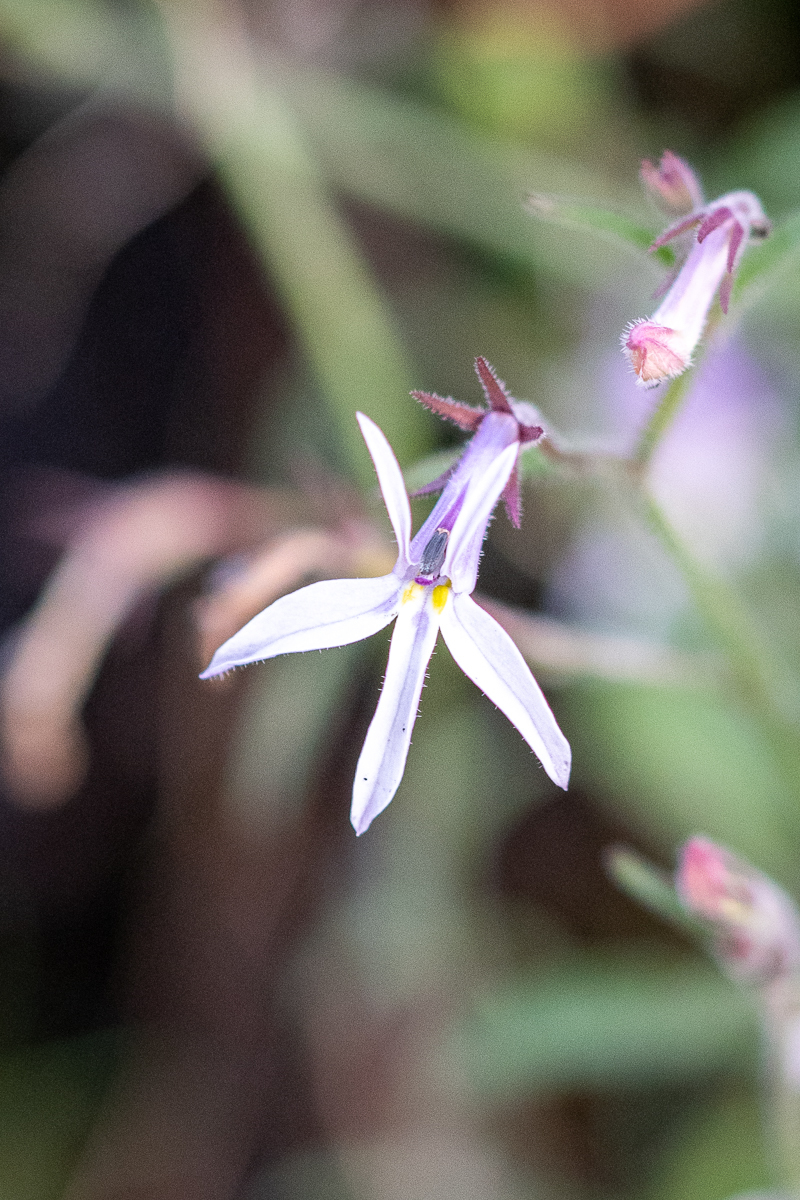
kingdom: Plantae
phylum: Tracheophyta
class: Magnoliopsida
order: Asterales
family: Campanulaceae
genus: Lobelia
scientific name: Lobelia pubescens
